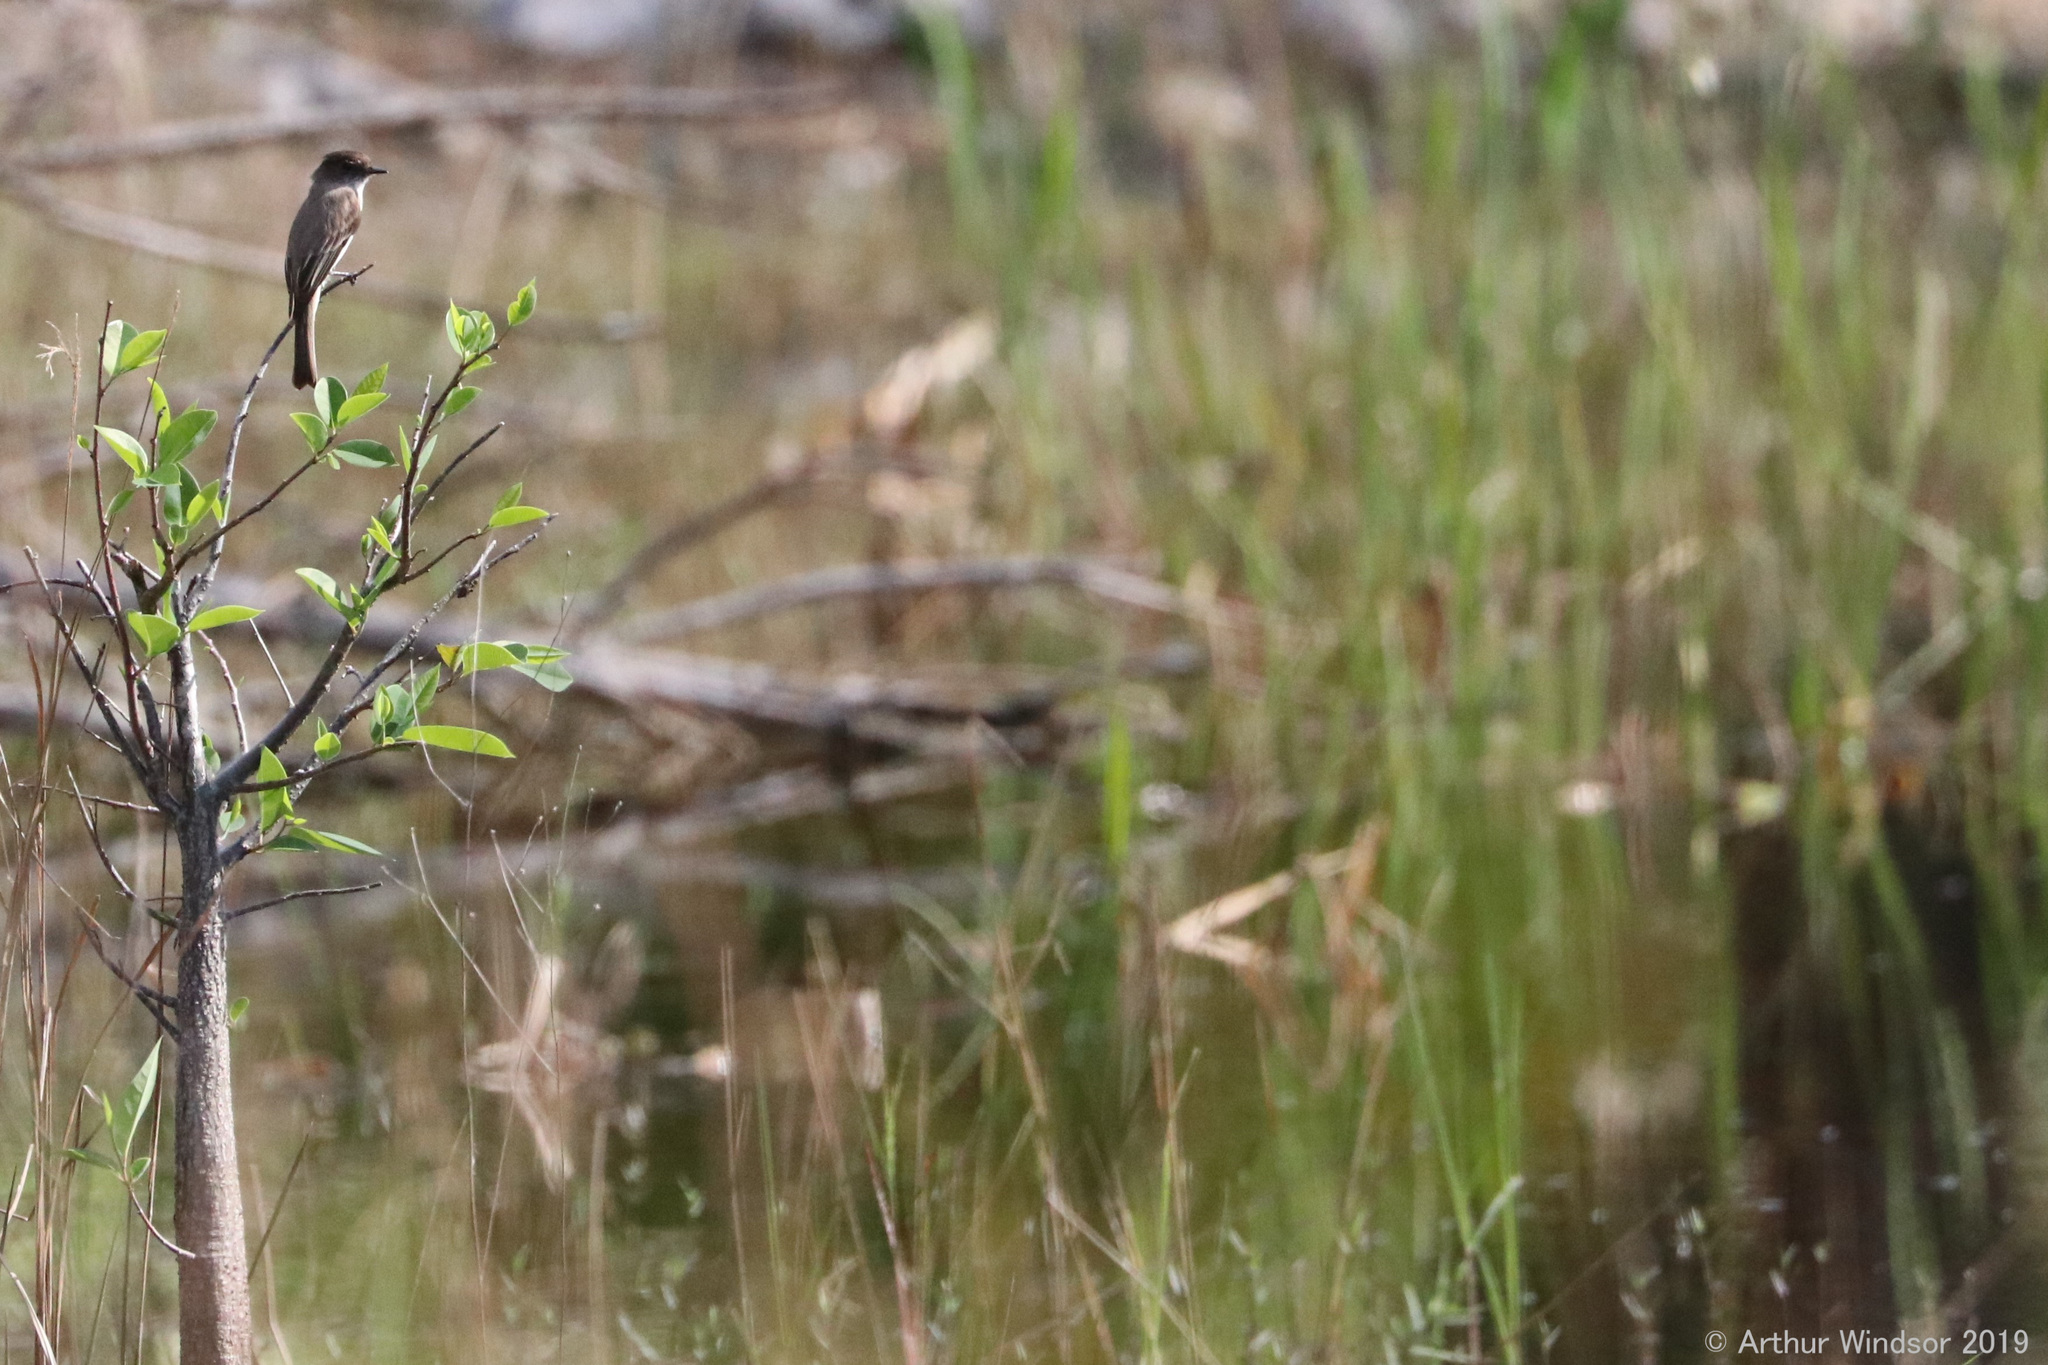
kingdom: Animalia
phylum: Chordata
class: Aves
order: Passeriformes
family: Tyrannidae
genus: Sayornis
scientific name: Sayornis phoebe
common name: Eastern phoebe
